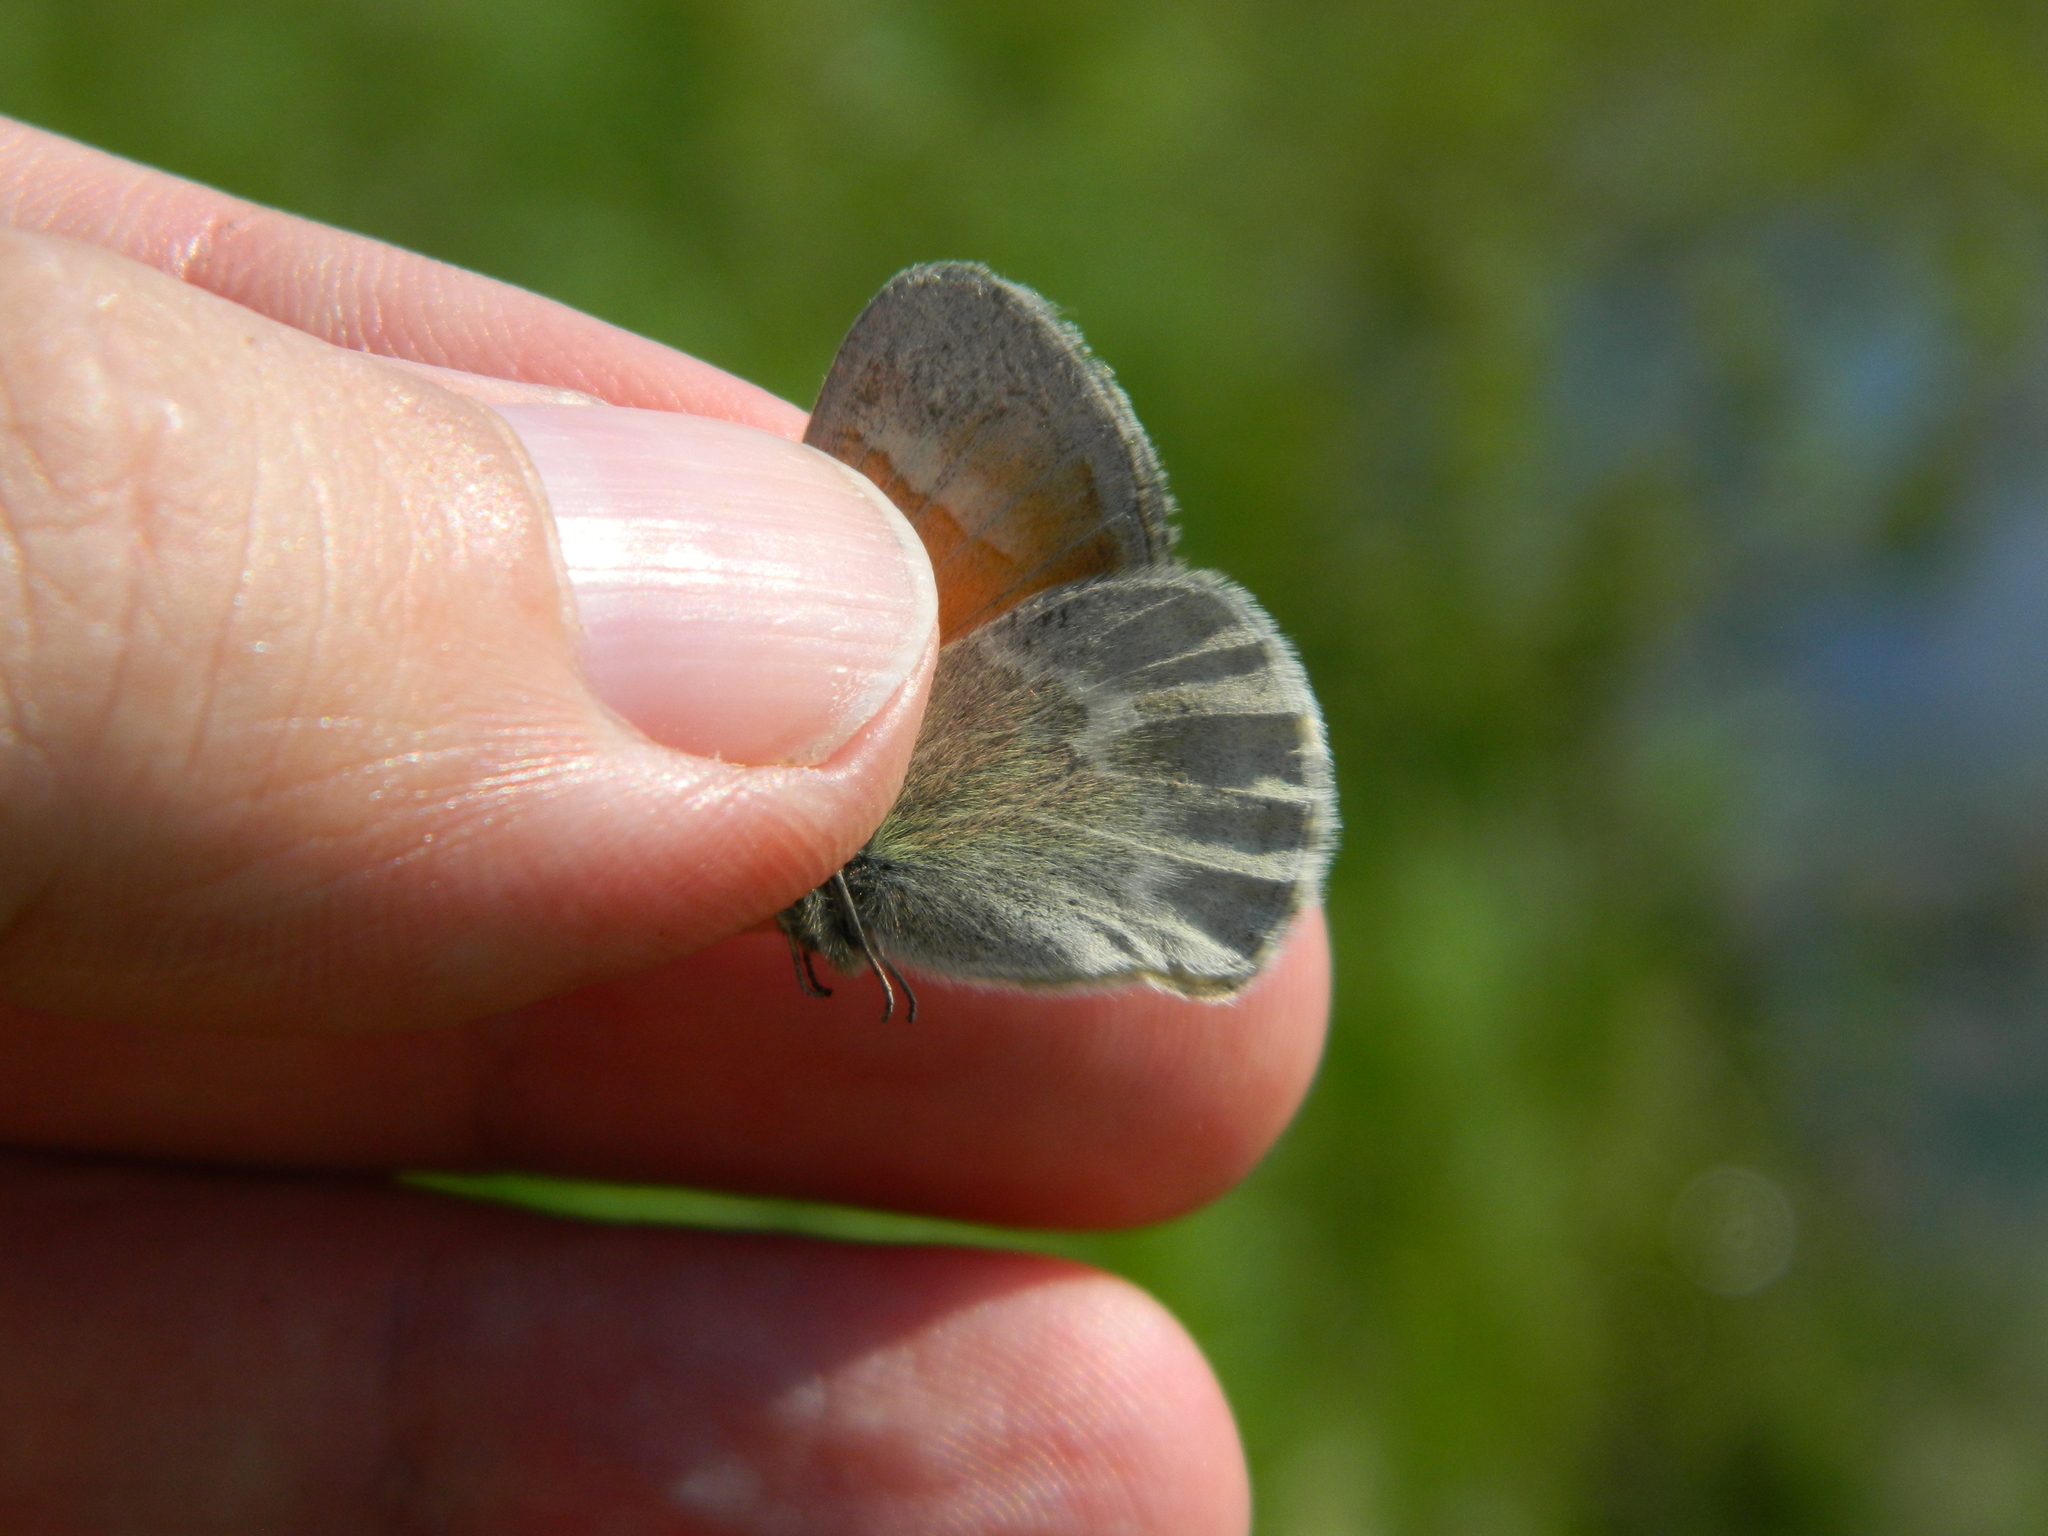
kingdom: Animalia
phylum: Arthropoda
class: Insecta
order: Lepidoptera
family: Nymphalidae
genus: Coenonympha
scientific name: Coenonympha california
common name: Common ringlet
